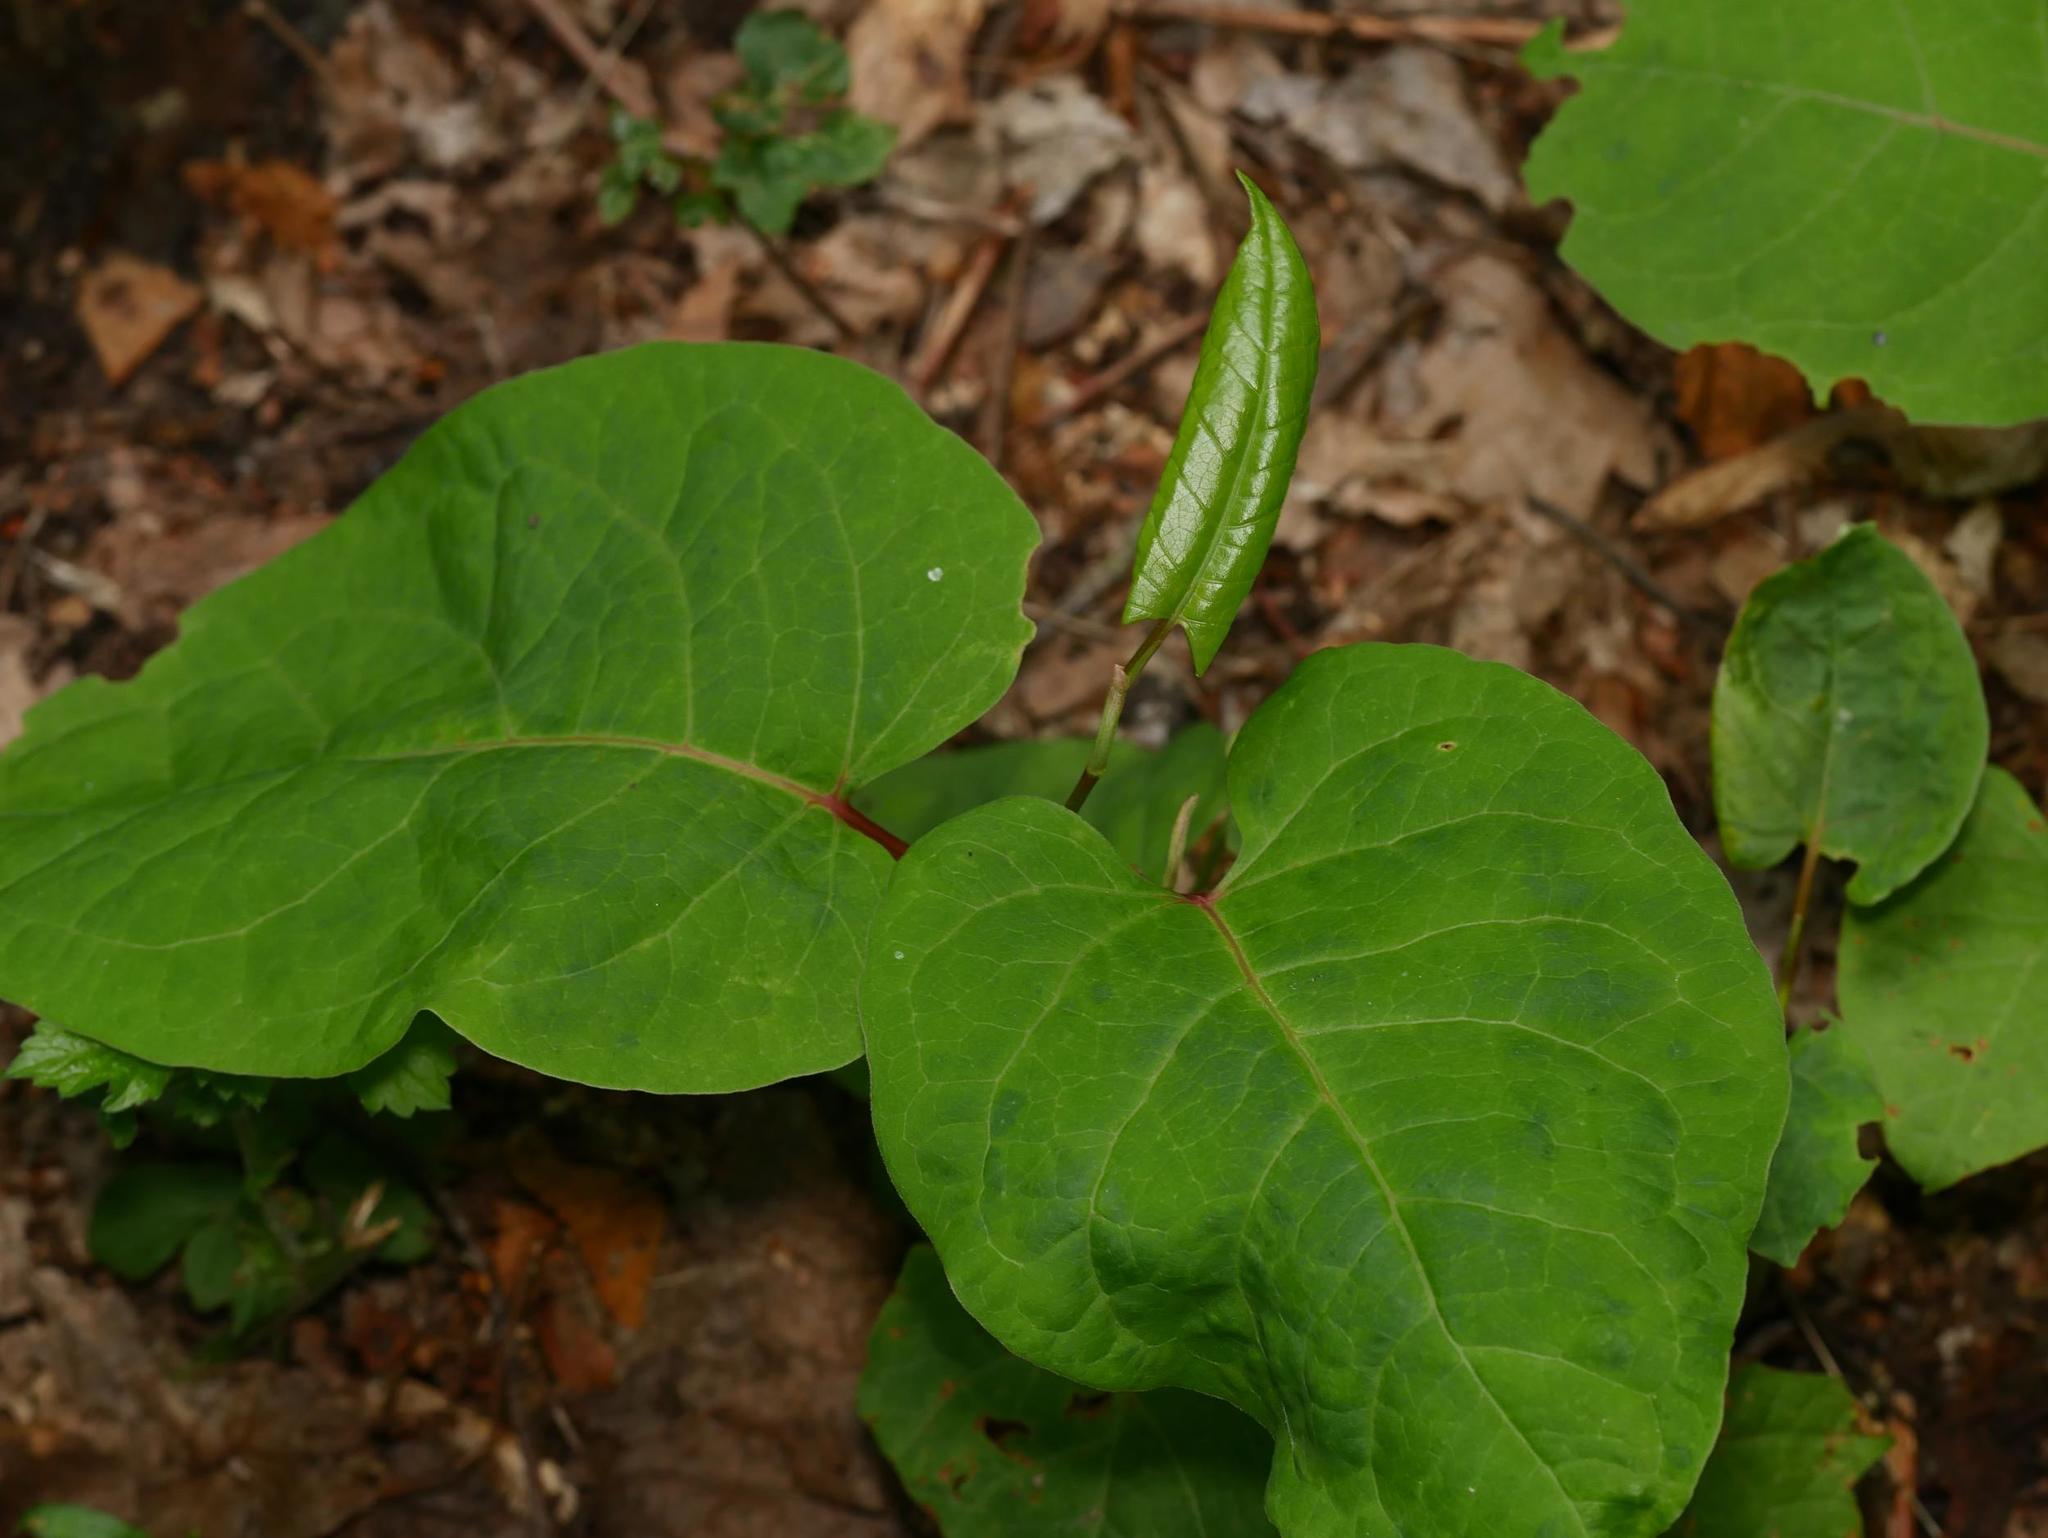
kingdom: Plantae
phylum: Tracheophyta
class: Magnoliopsida
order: Caryophyllales
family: Polygonaceae
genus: Reynoutria
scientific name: Reynoutria japonica
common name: Japanese knotweed
